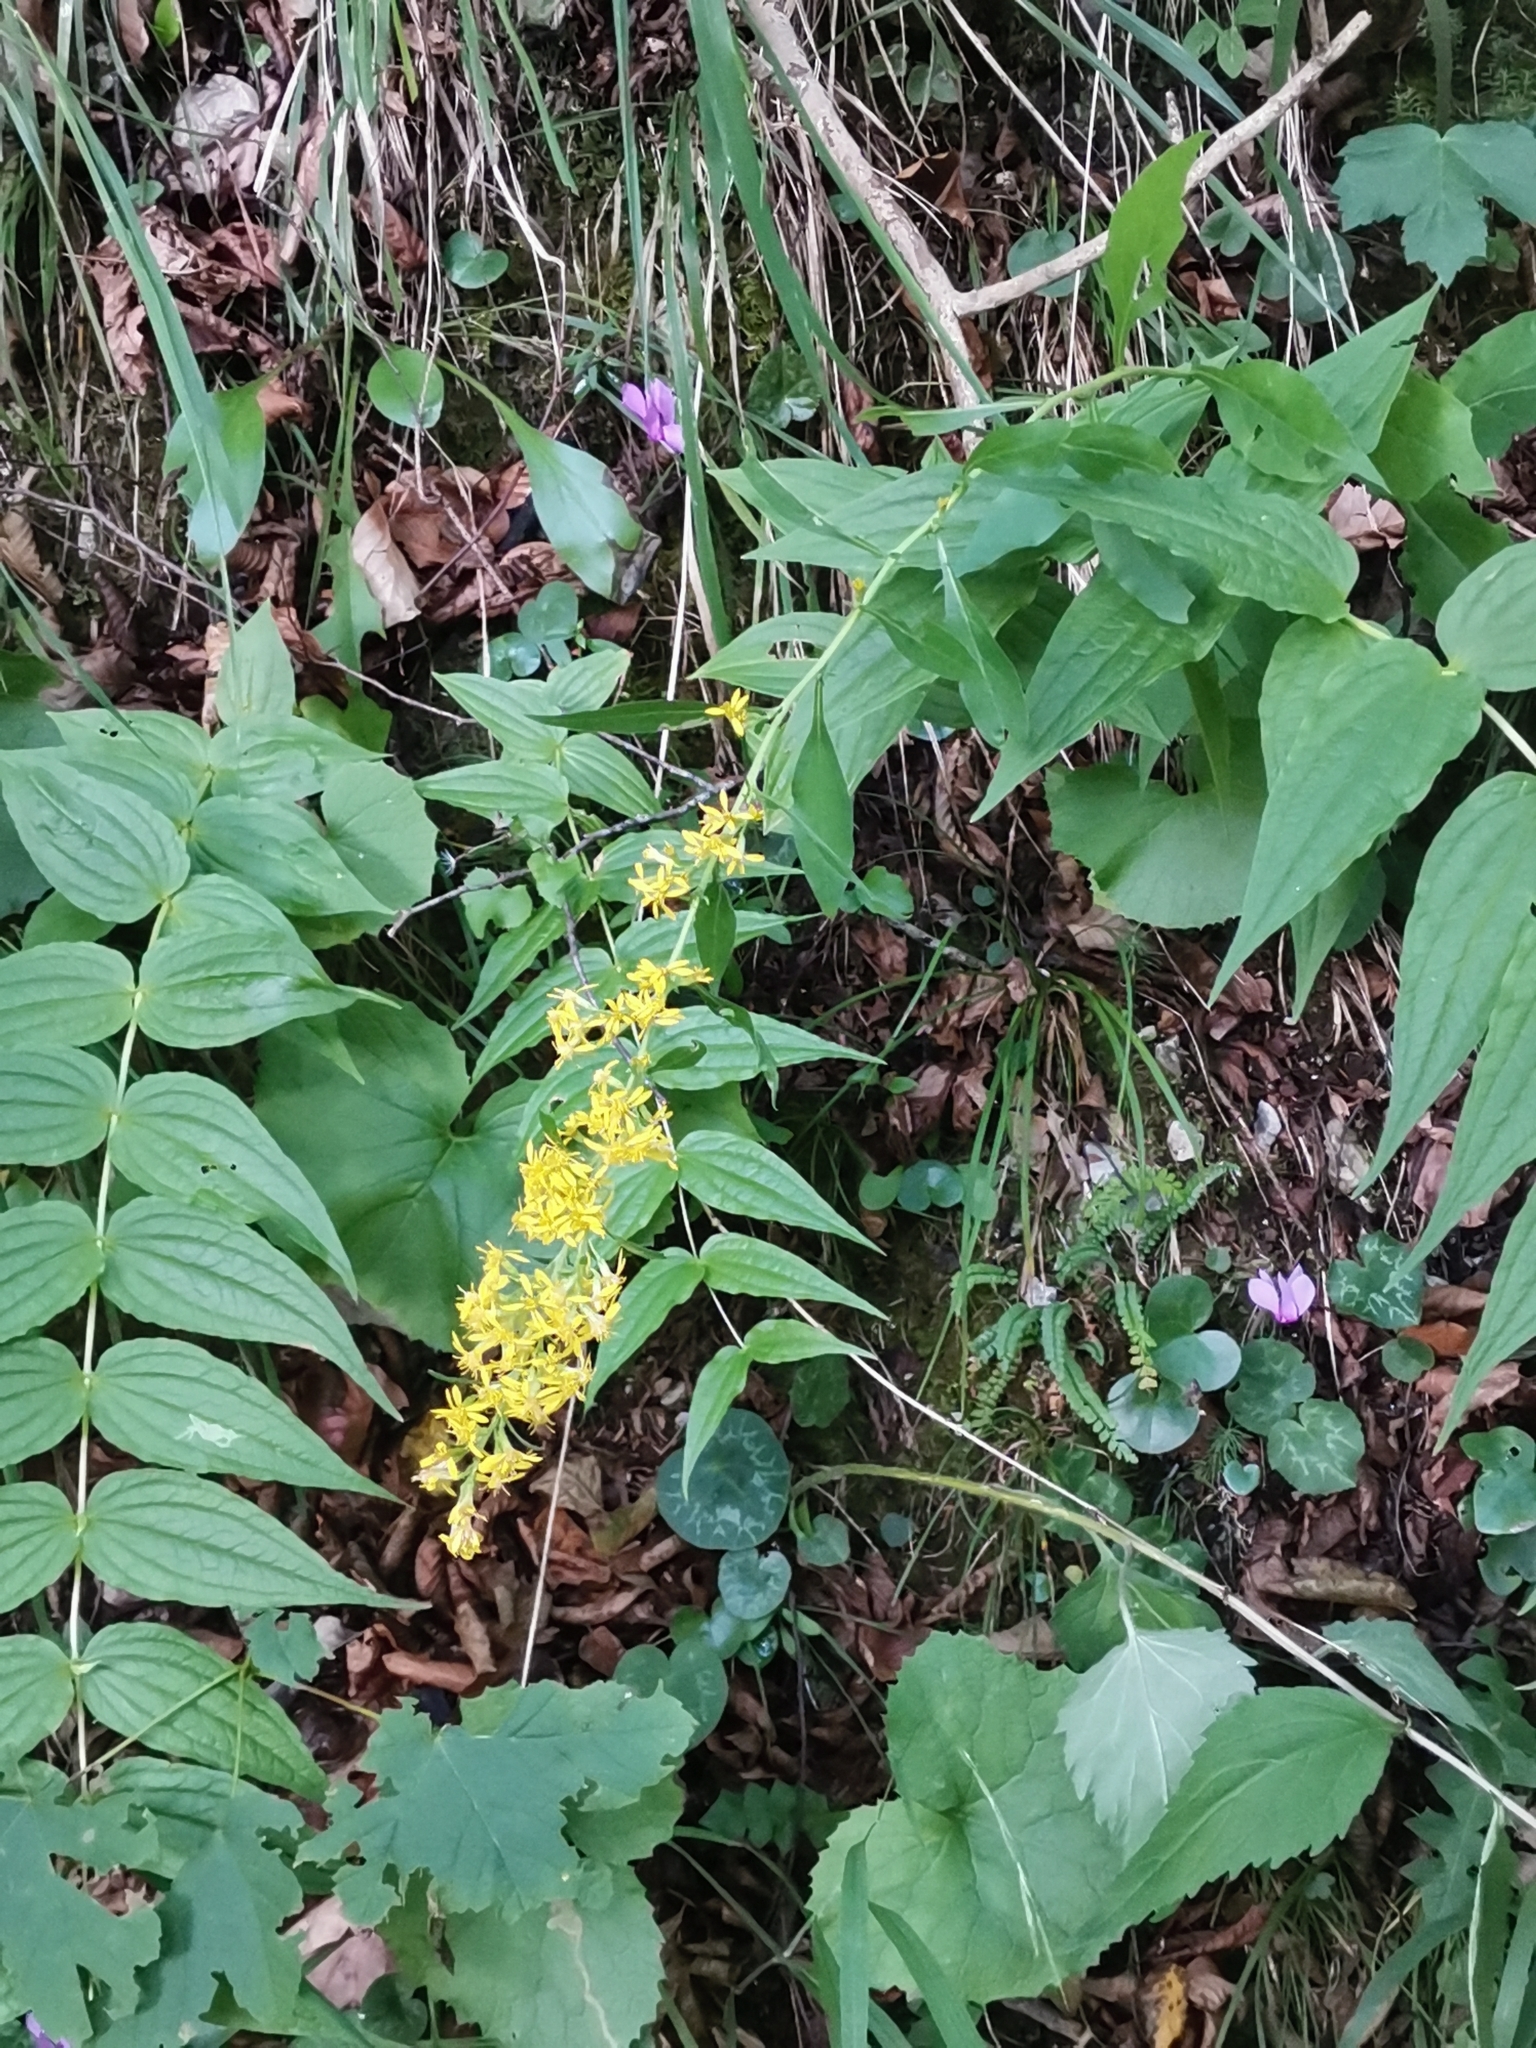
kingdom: Plantae
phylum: Tracheophyta
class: Magnoliopsida
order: Asterales
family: Asteraceae
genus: Solidago
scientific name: Solidago virgaurea
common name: Goldenrod
